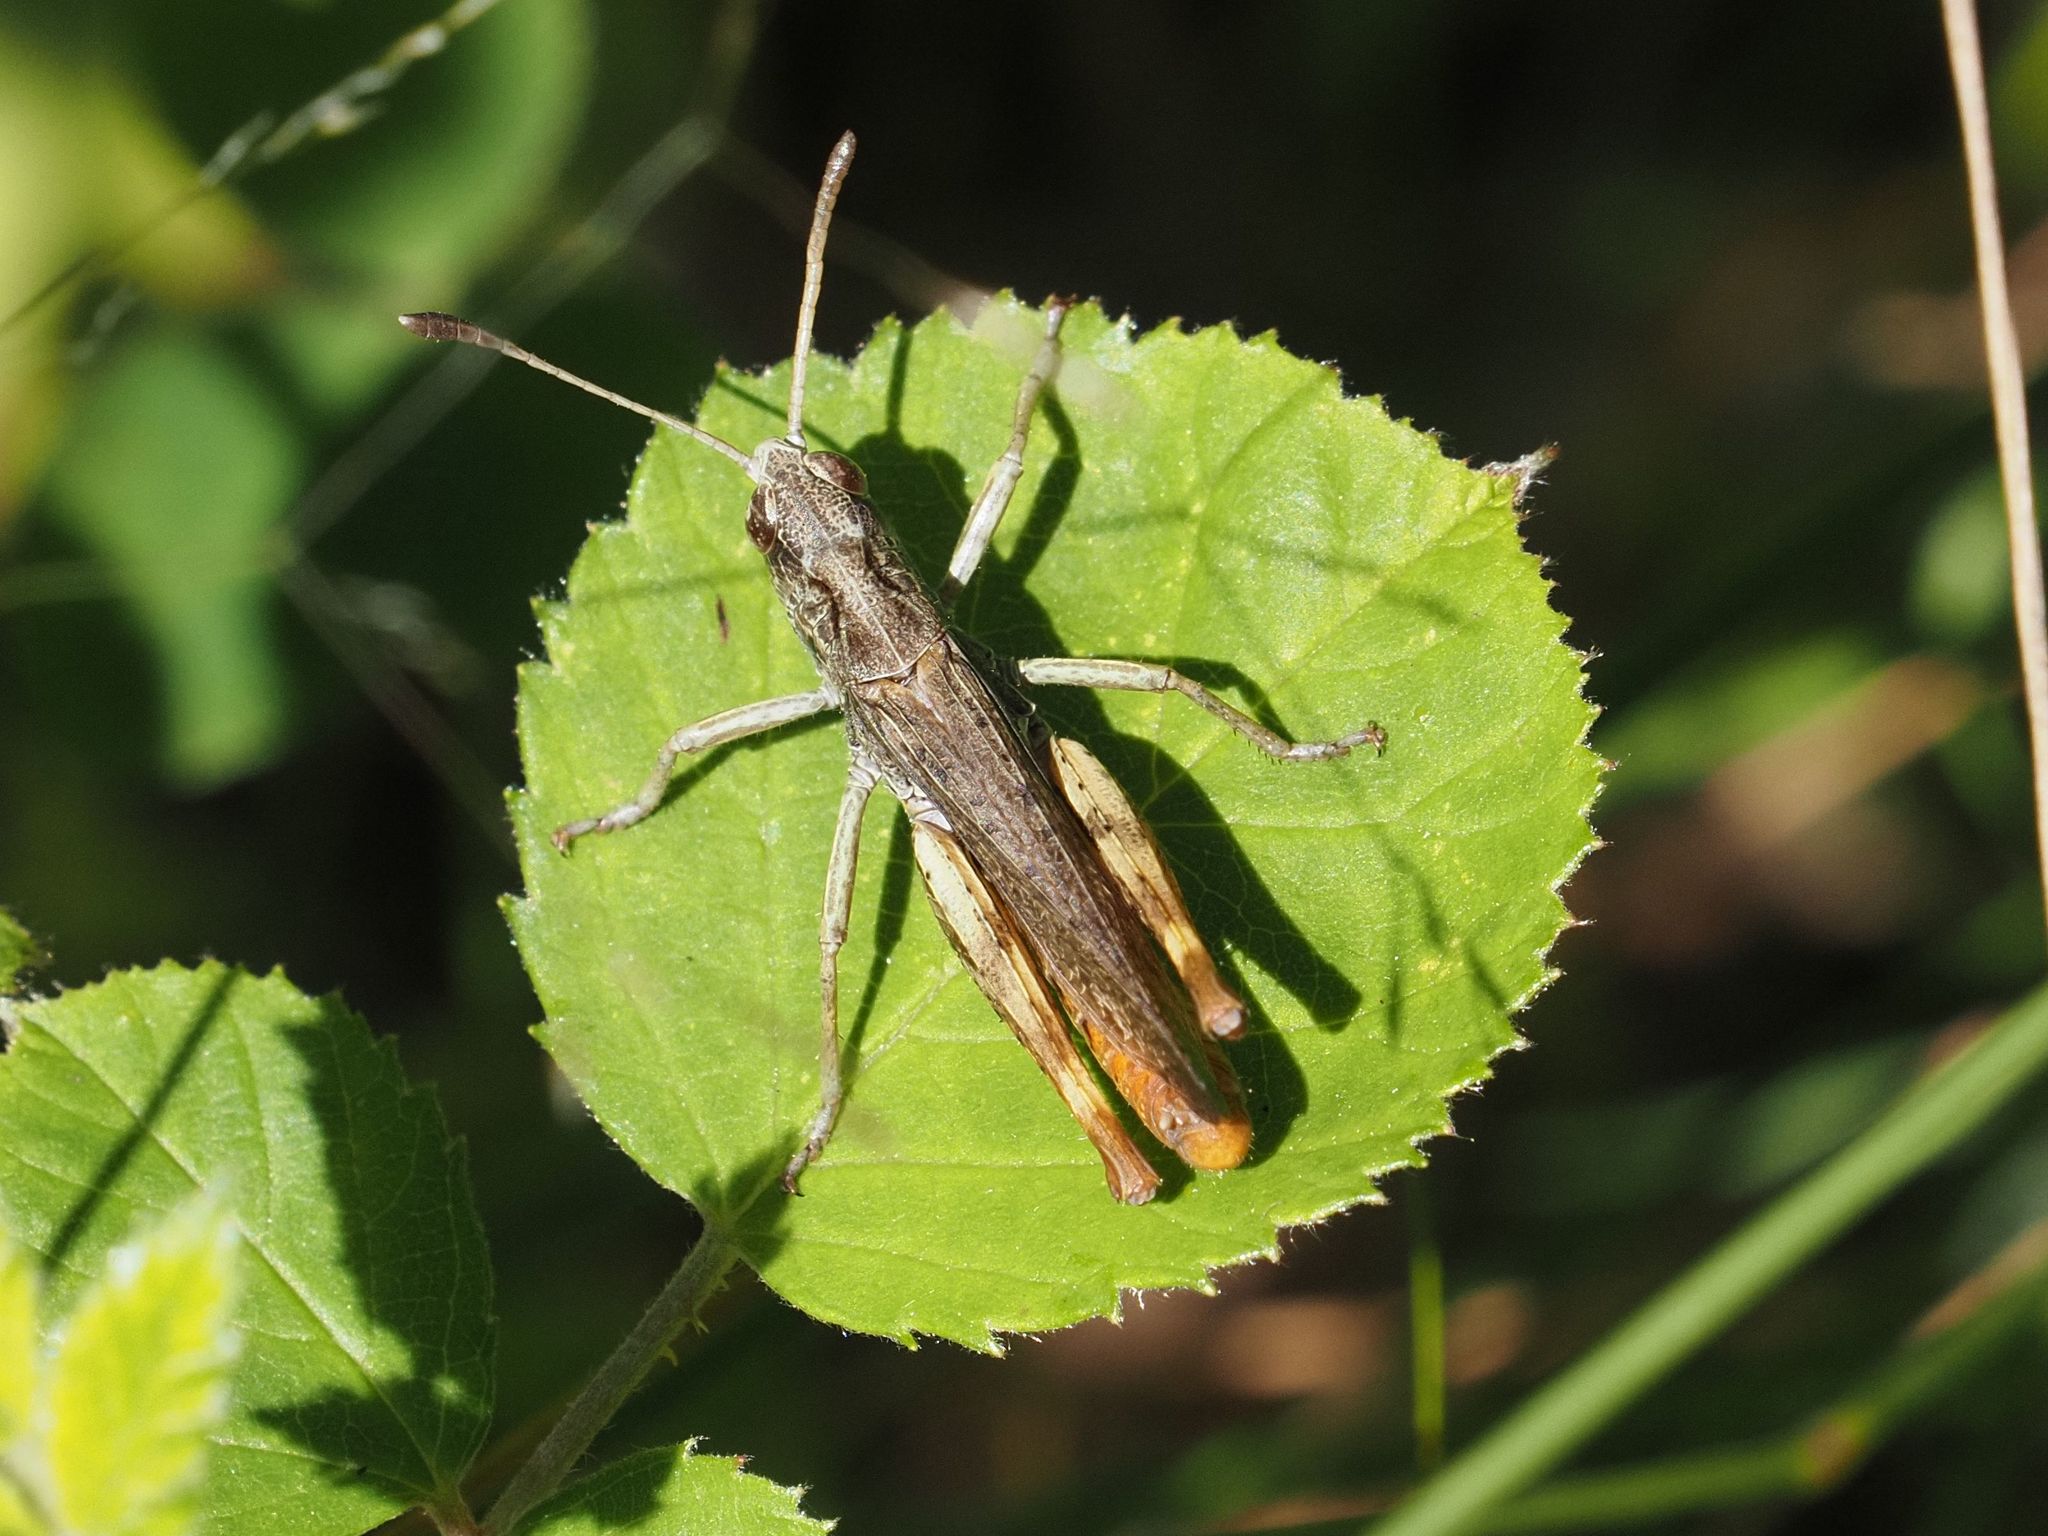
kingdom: Animalia
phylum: Arthropoda
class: Insecta
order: Orthoptera
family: Acrididae
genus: Gomphocerippus
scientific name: Gomphocerippus rufus
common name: Rufous grasshopper
